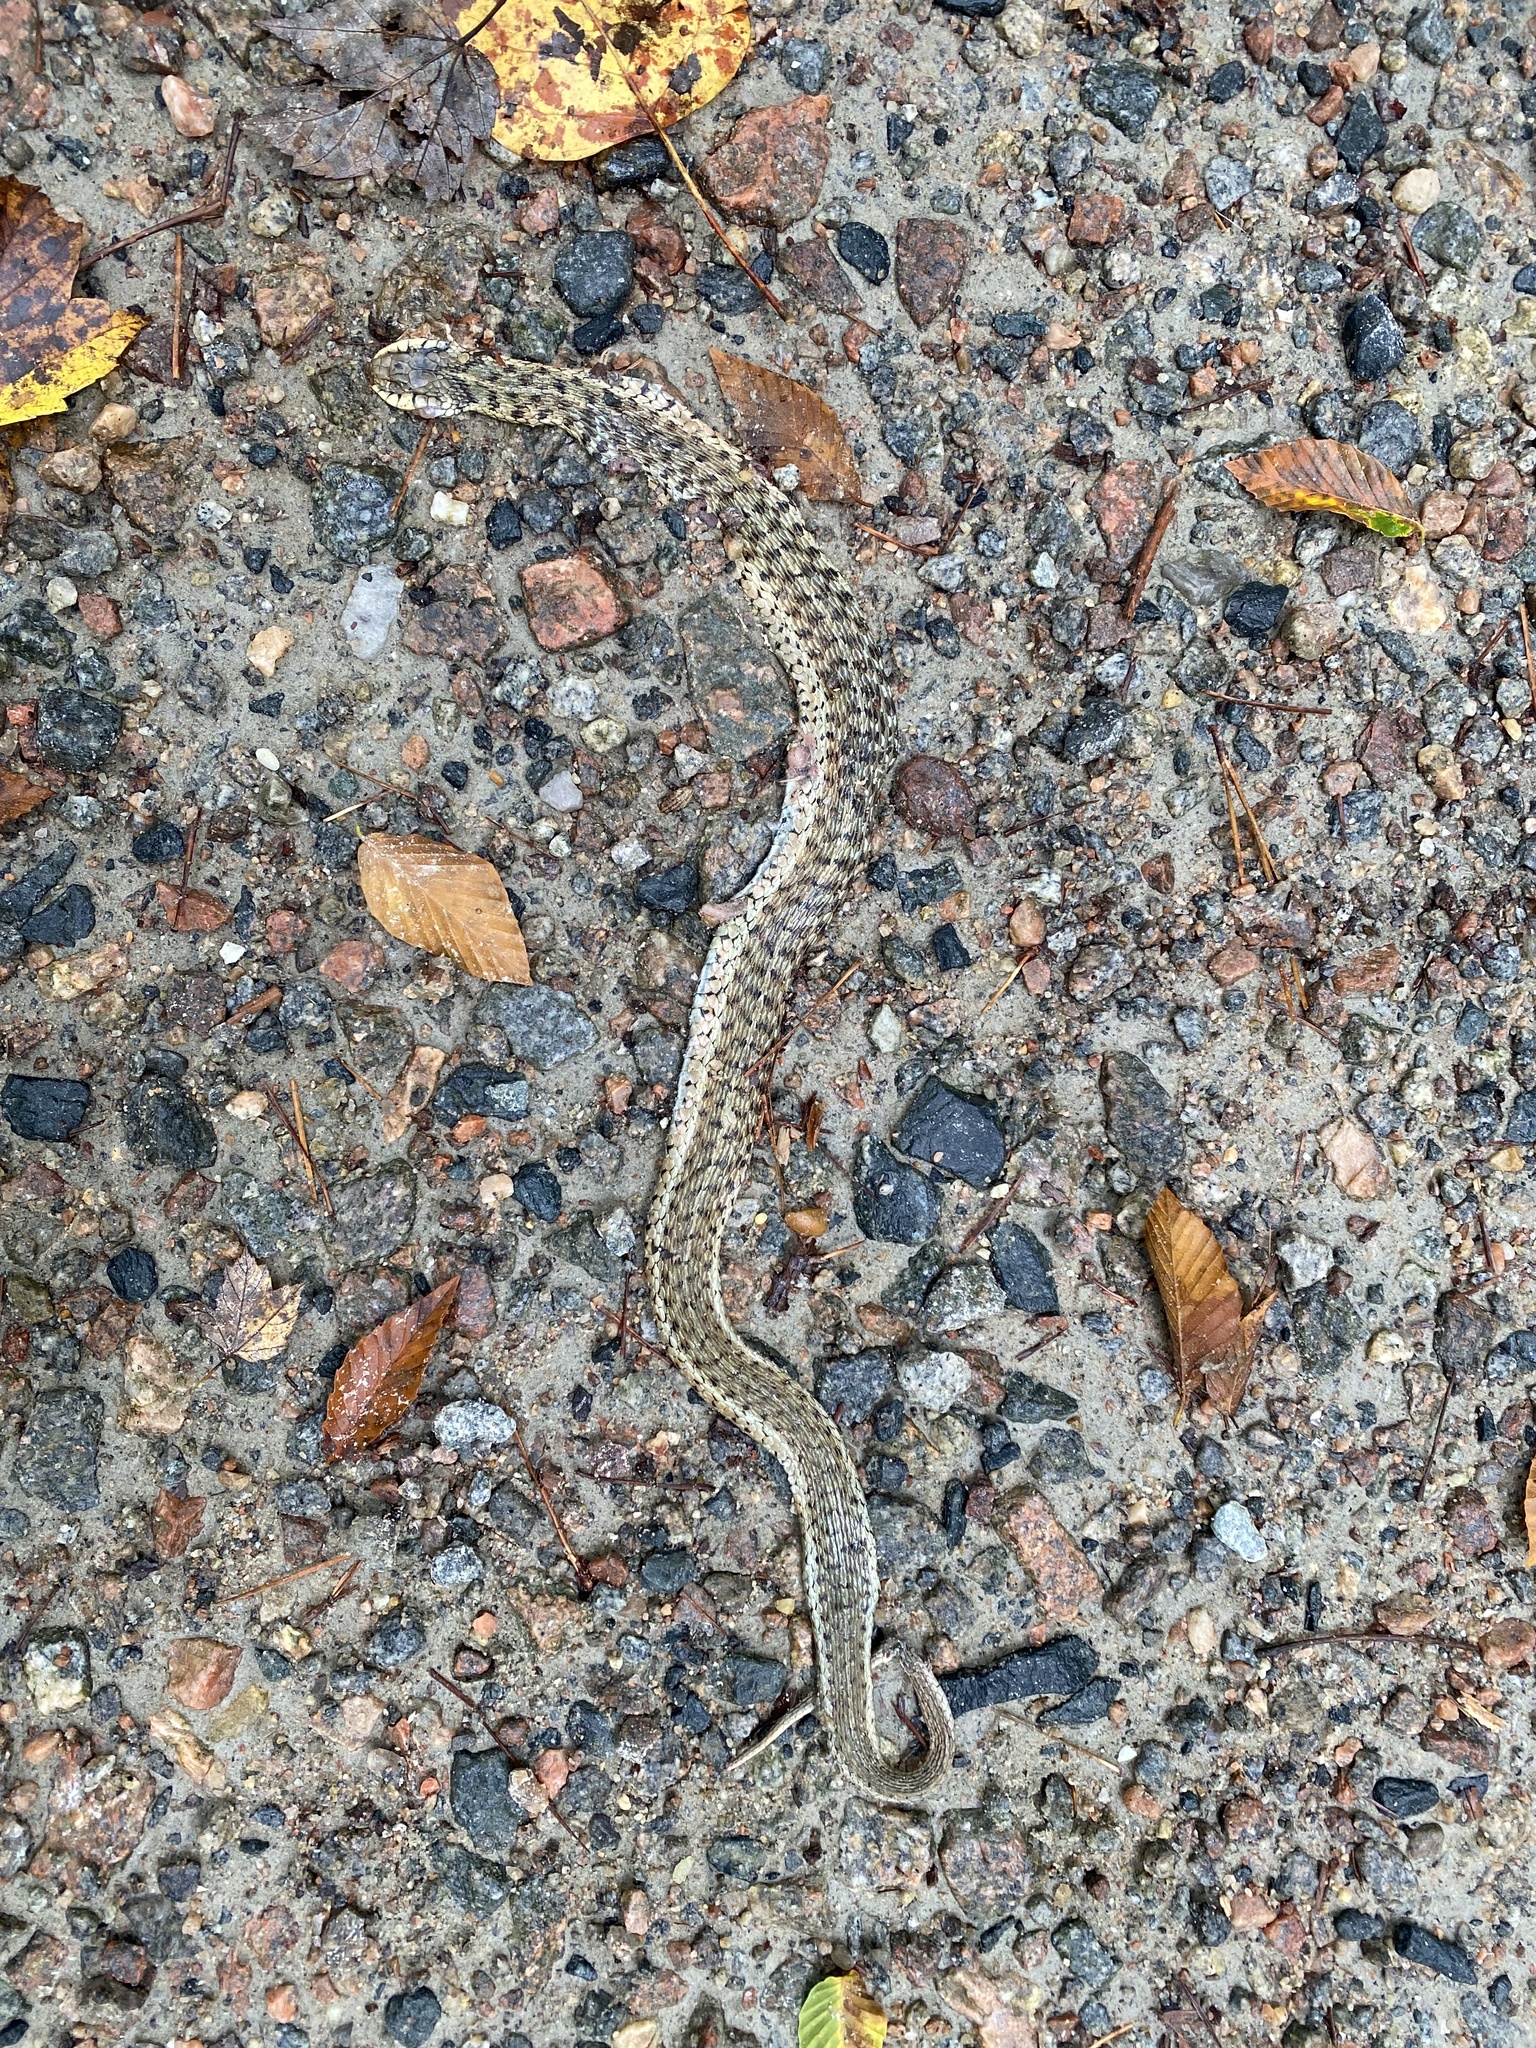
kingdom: Animalia
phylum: Chordata
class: Squamata
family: Colubridae
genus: Thamnophis
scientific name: Thamnophis sirtalis
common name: Common garter snake
